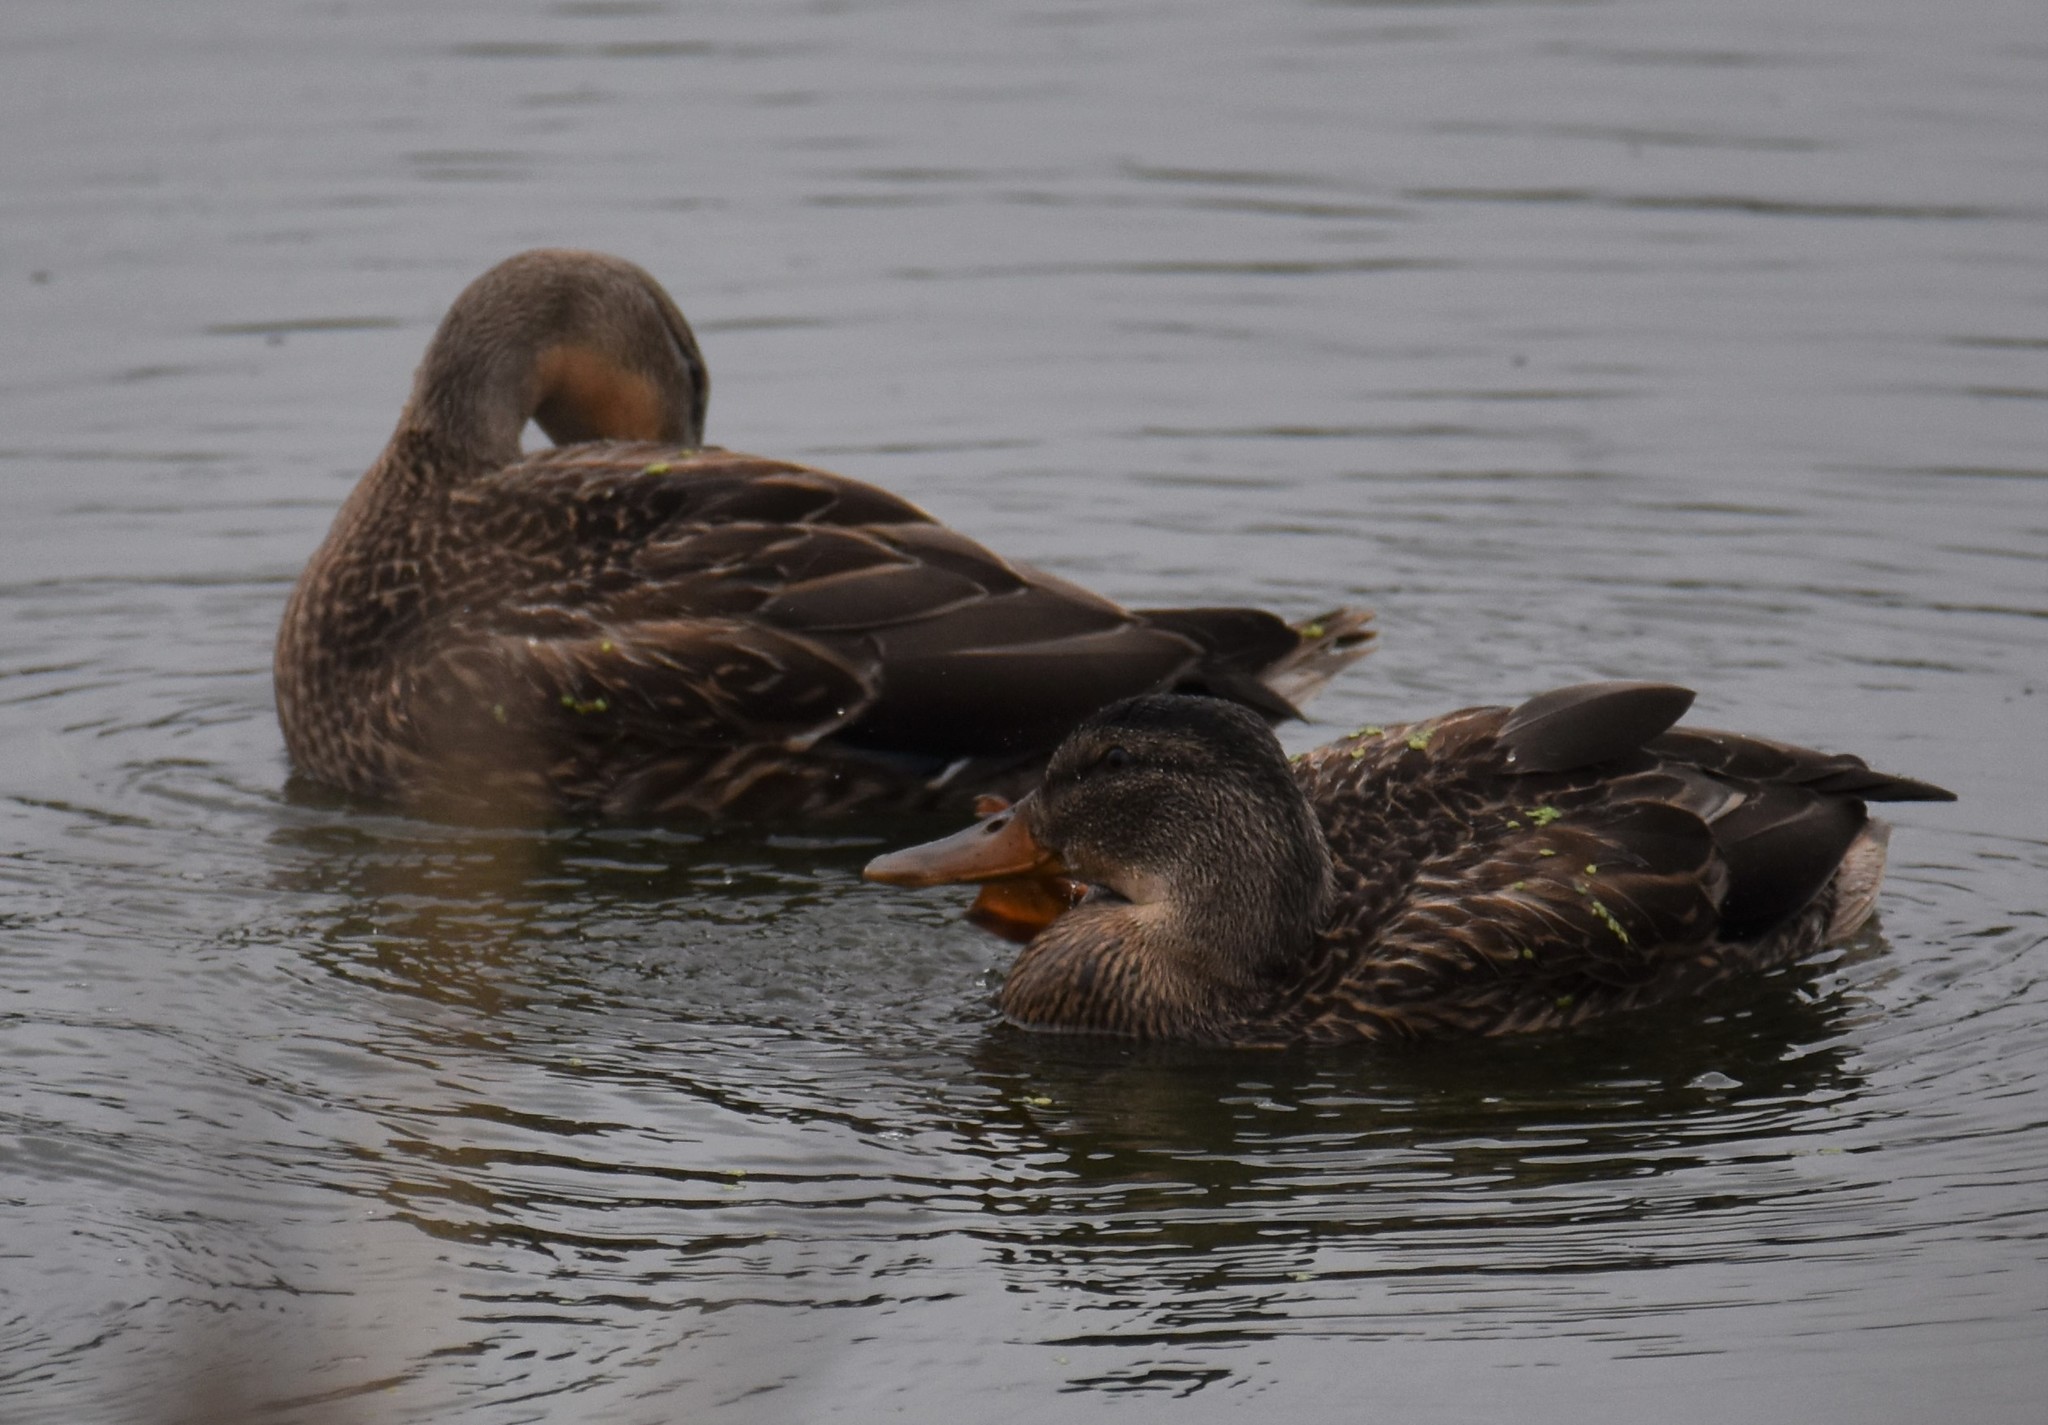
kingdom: Animalia
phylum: Chordata
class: Aves
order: Anseriformes
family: Anatidae
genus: Anas
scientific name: Anas platyrhynchos
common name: Mallard
